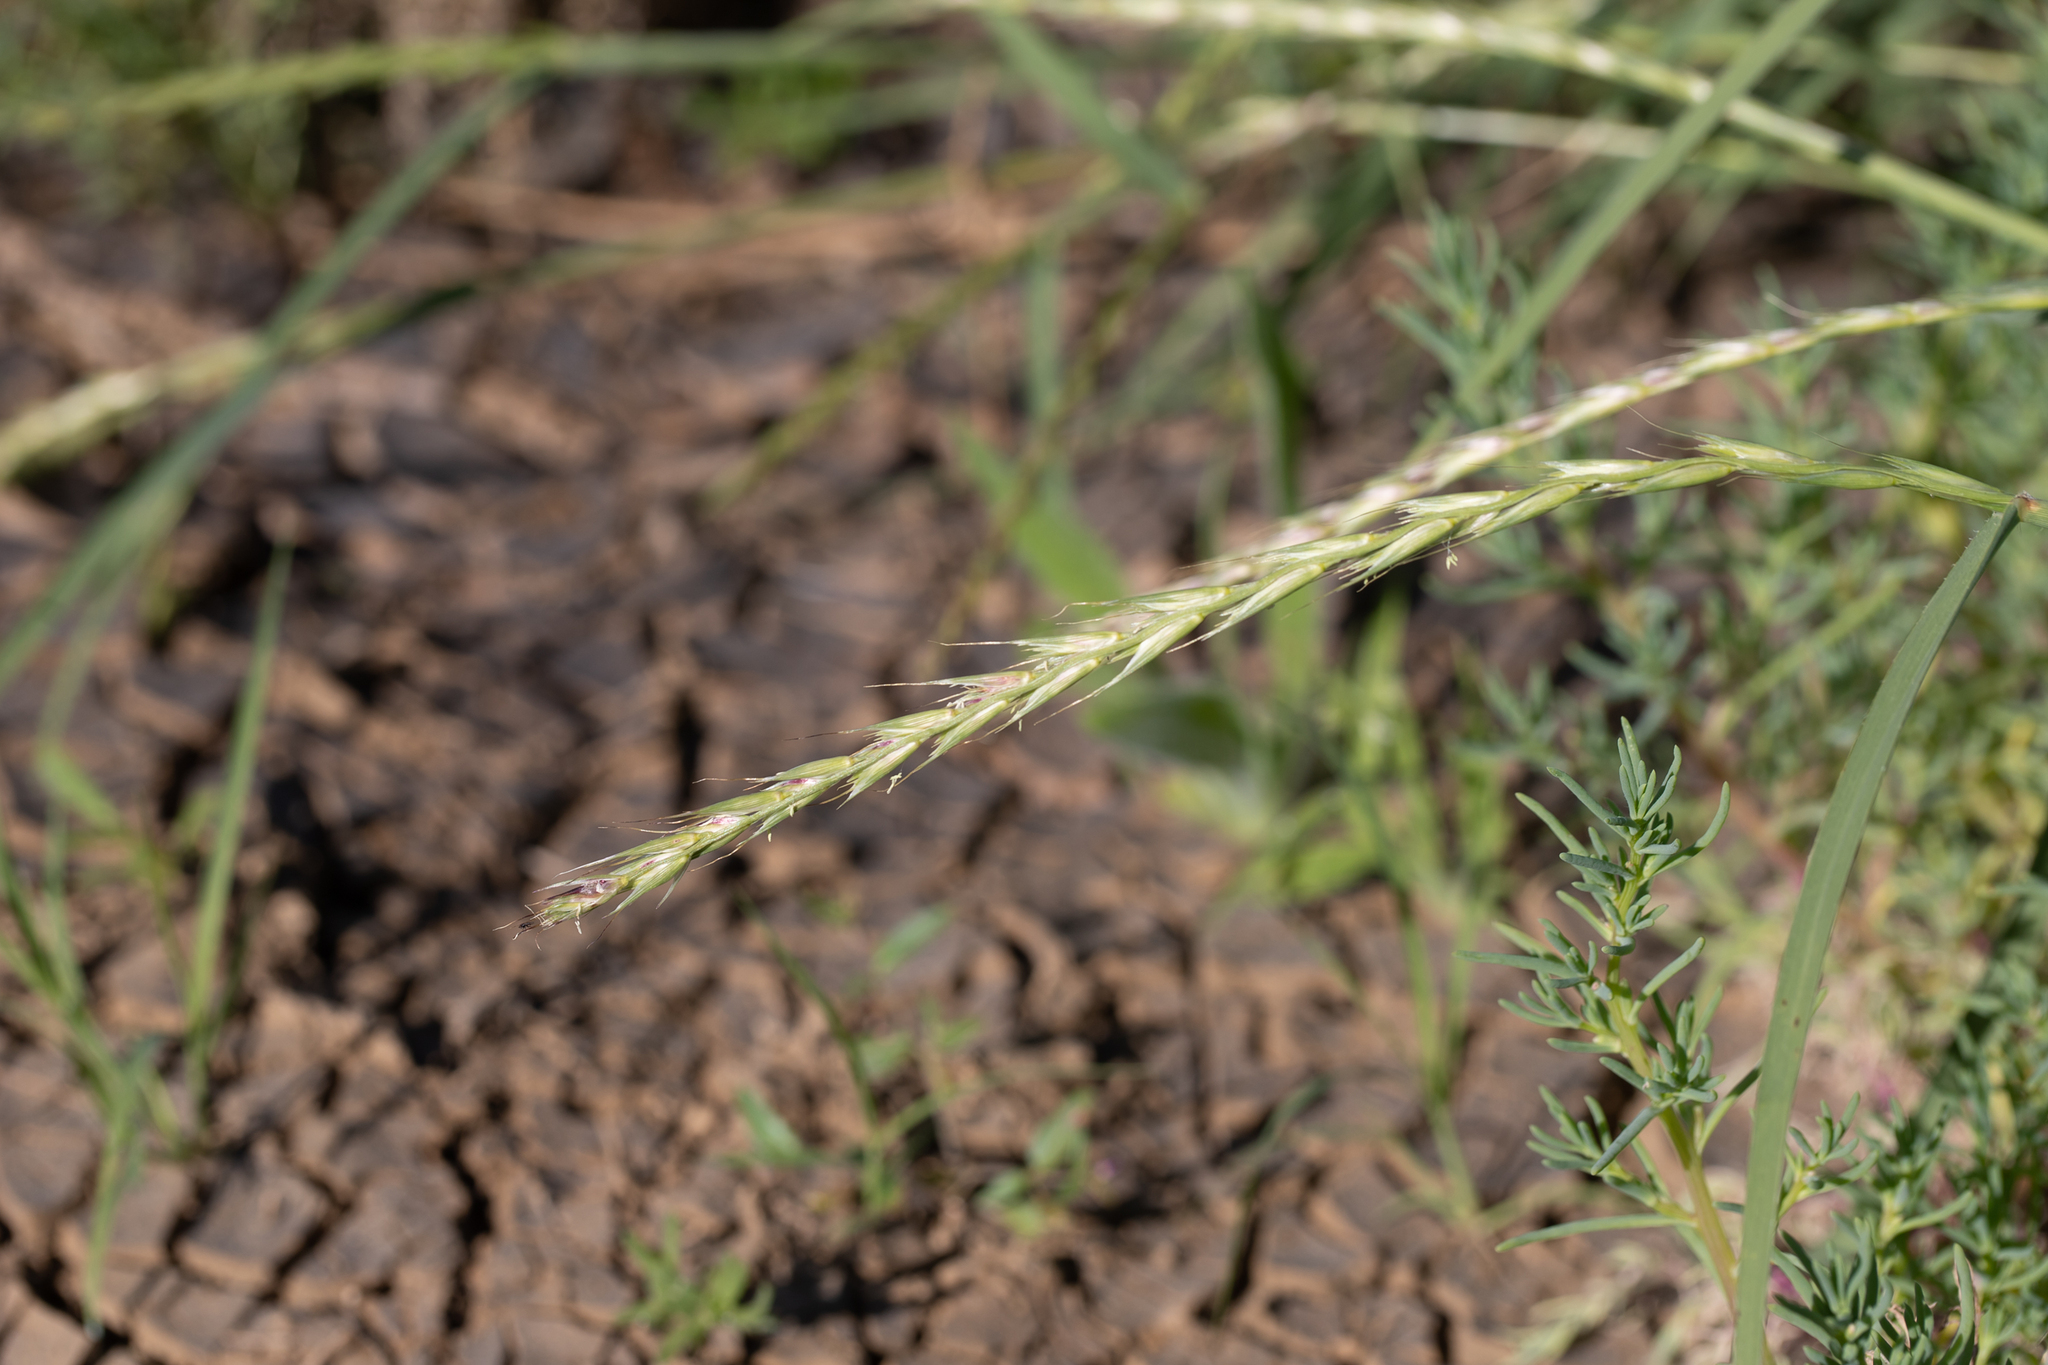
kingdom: Plantae
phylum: Tracheophyta
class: Liliopsida
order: Poales
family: Poaceae
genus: Astrebla
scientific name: Astrebla lappacea
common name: Curly mitchell grass
